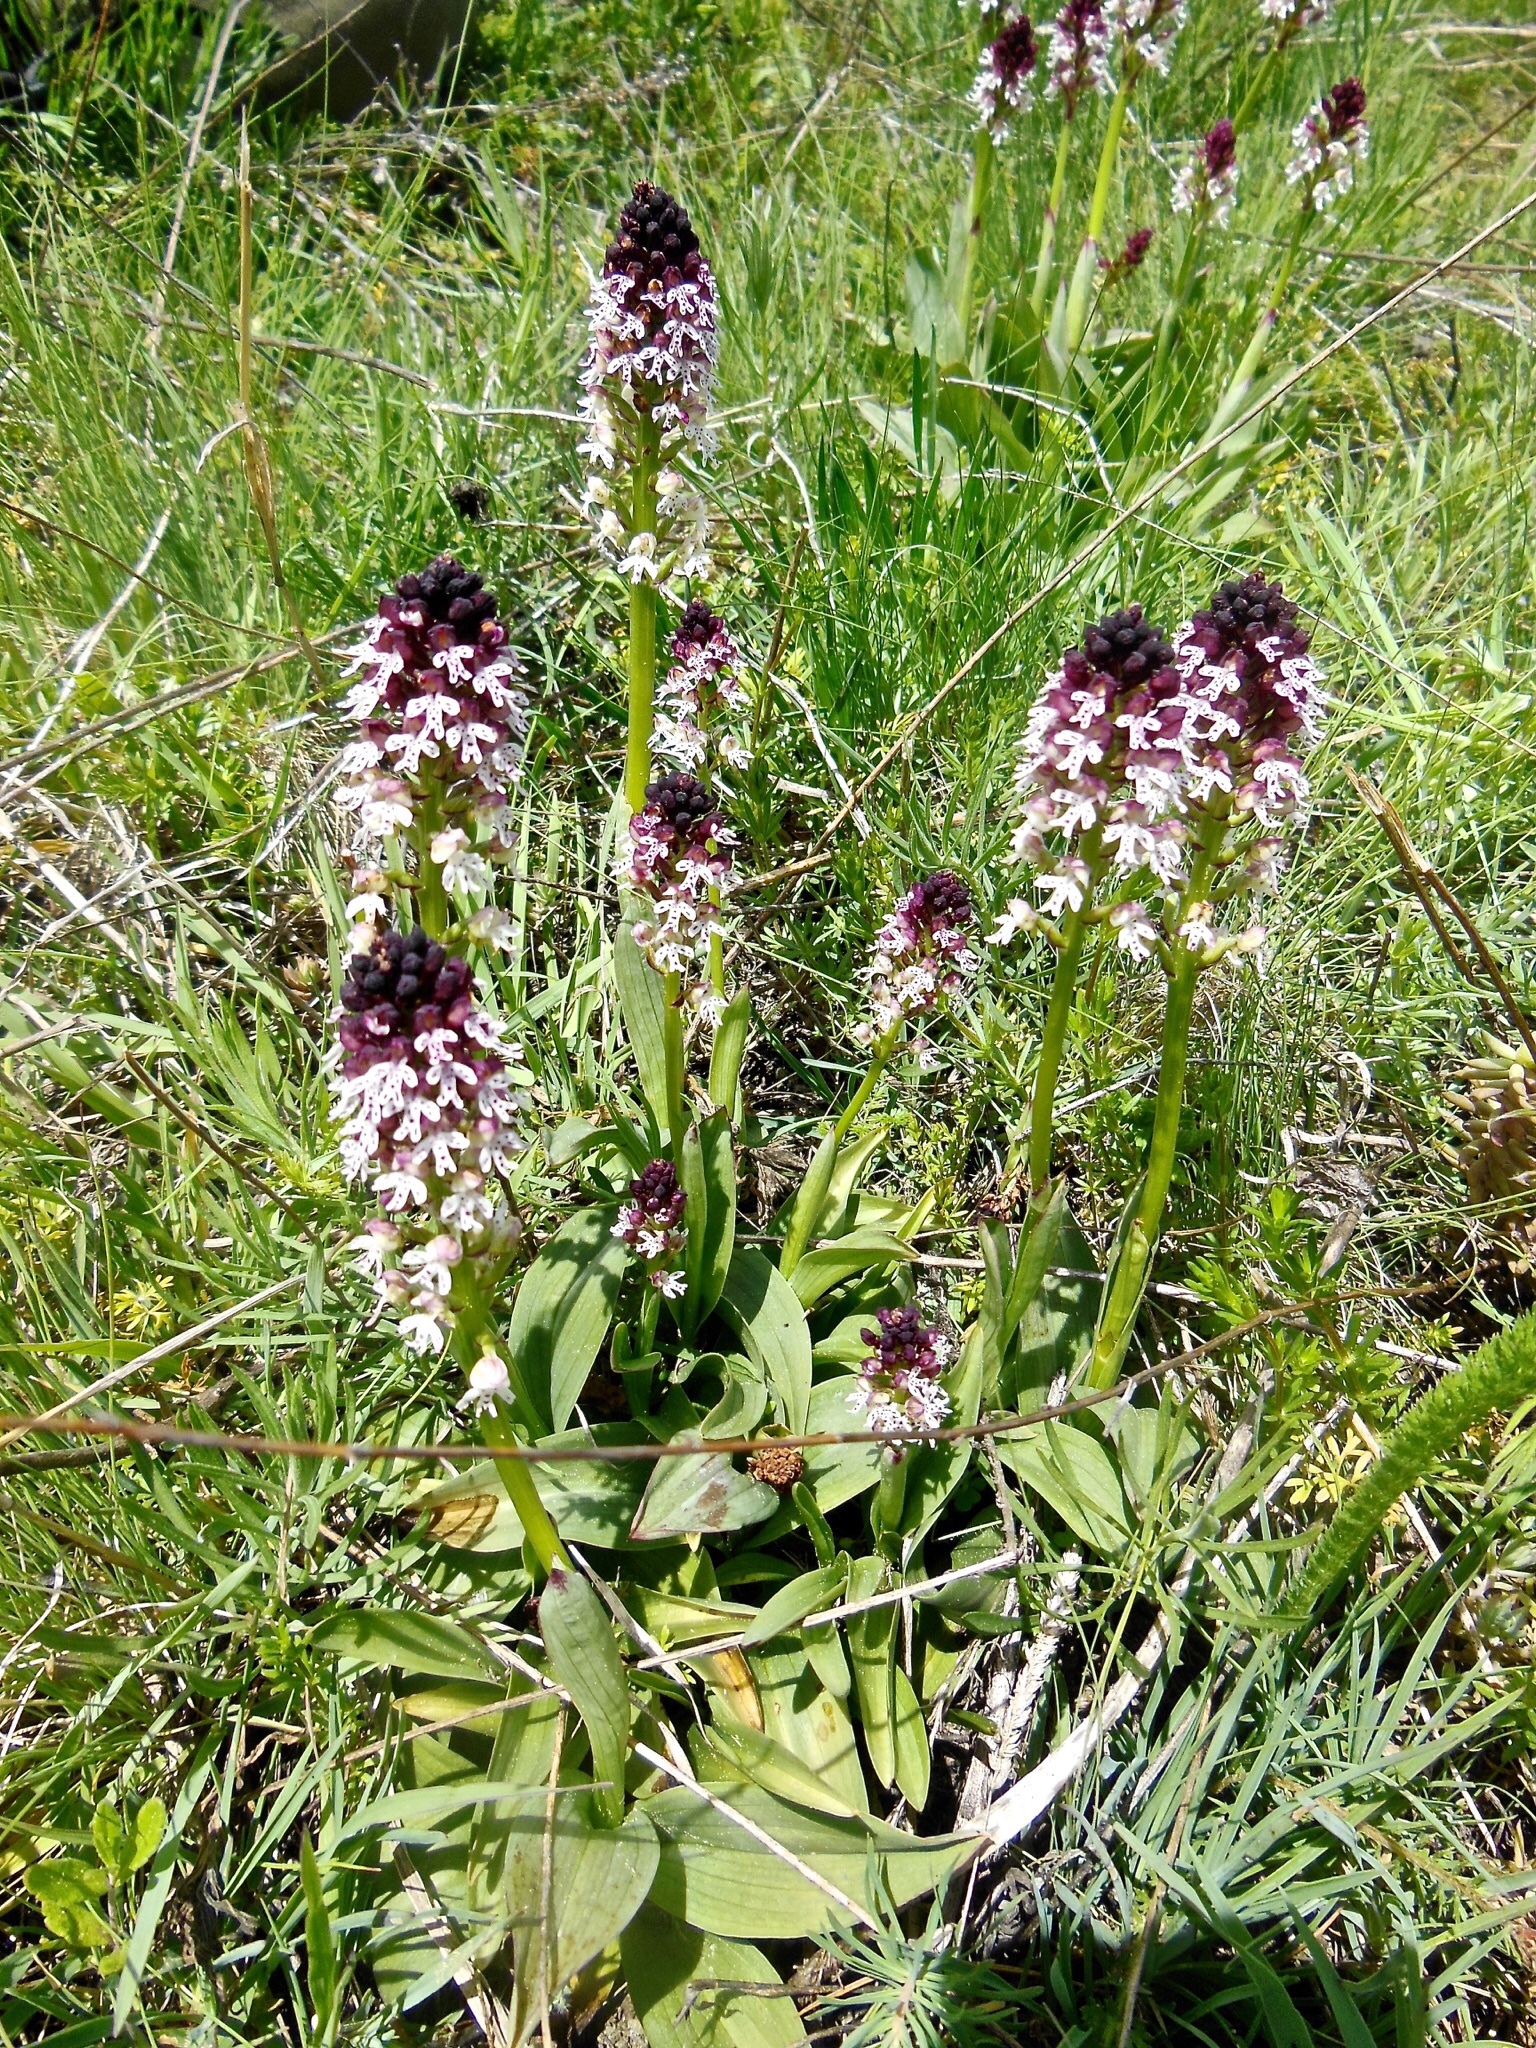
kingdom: Plantae
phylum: Tracheophyta
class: Liliopsida
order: Asparagales
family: Orchidaceae
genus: Neotinea
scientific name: Neotinea ustulata
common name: Burnt orchid
